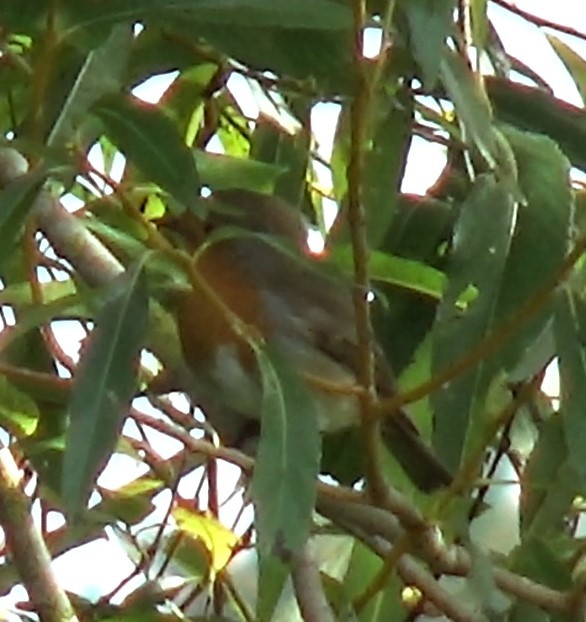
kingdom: Animalia
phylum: Chordata
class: Aves
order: Passeriformes
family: Muscicapidae
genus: Erithacus
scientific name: Erithacus rubecula
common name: European robin
